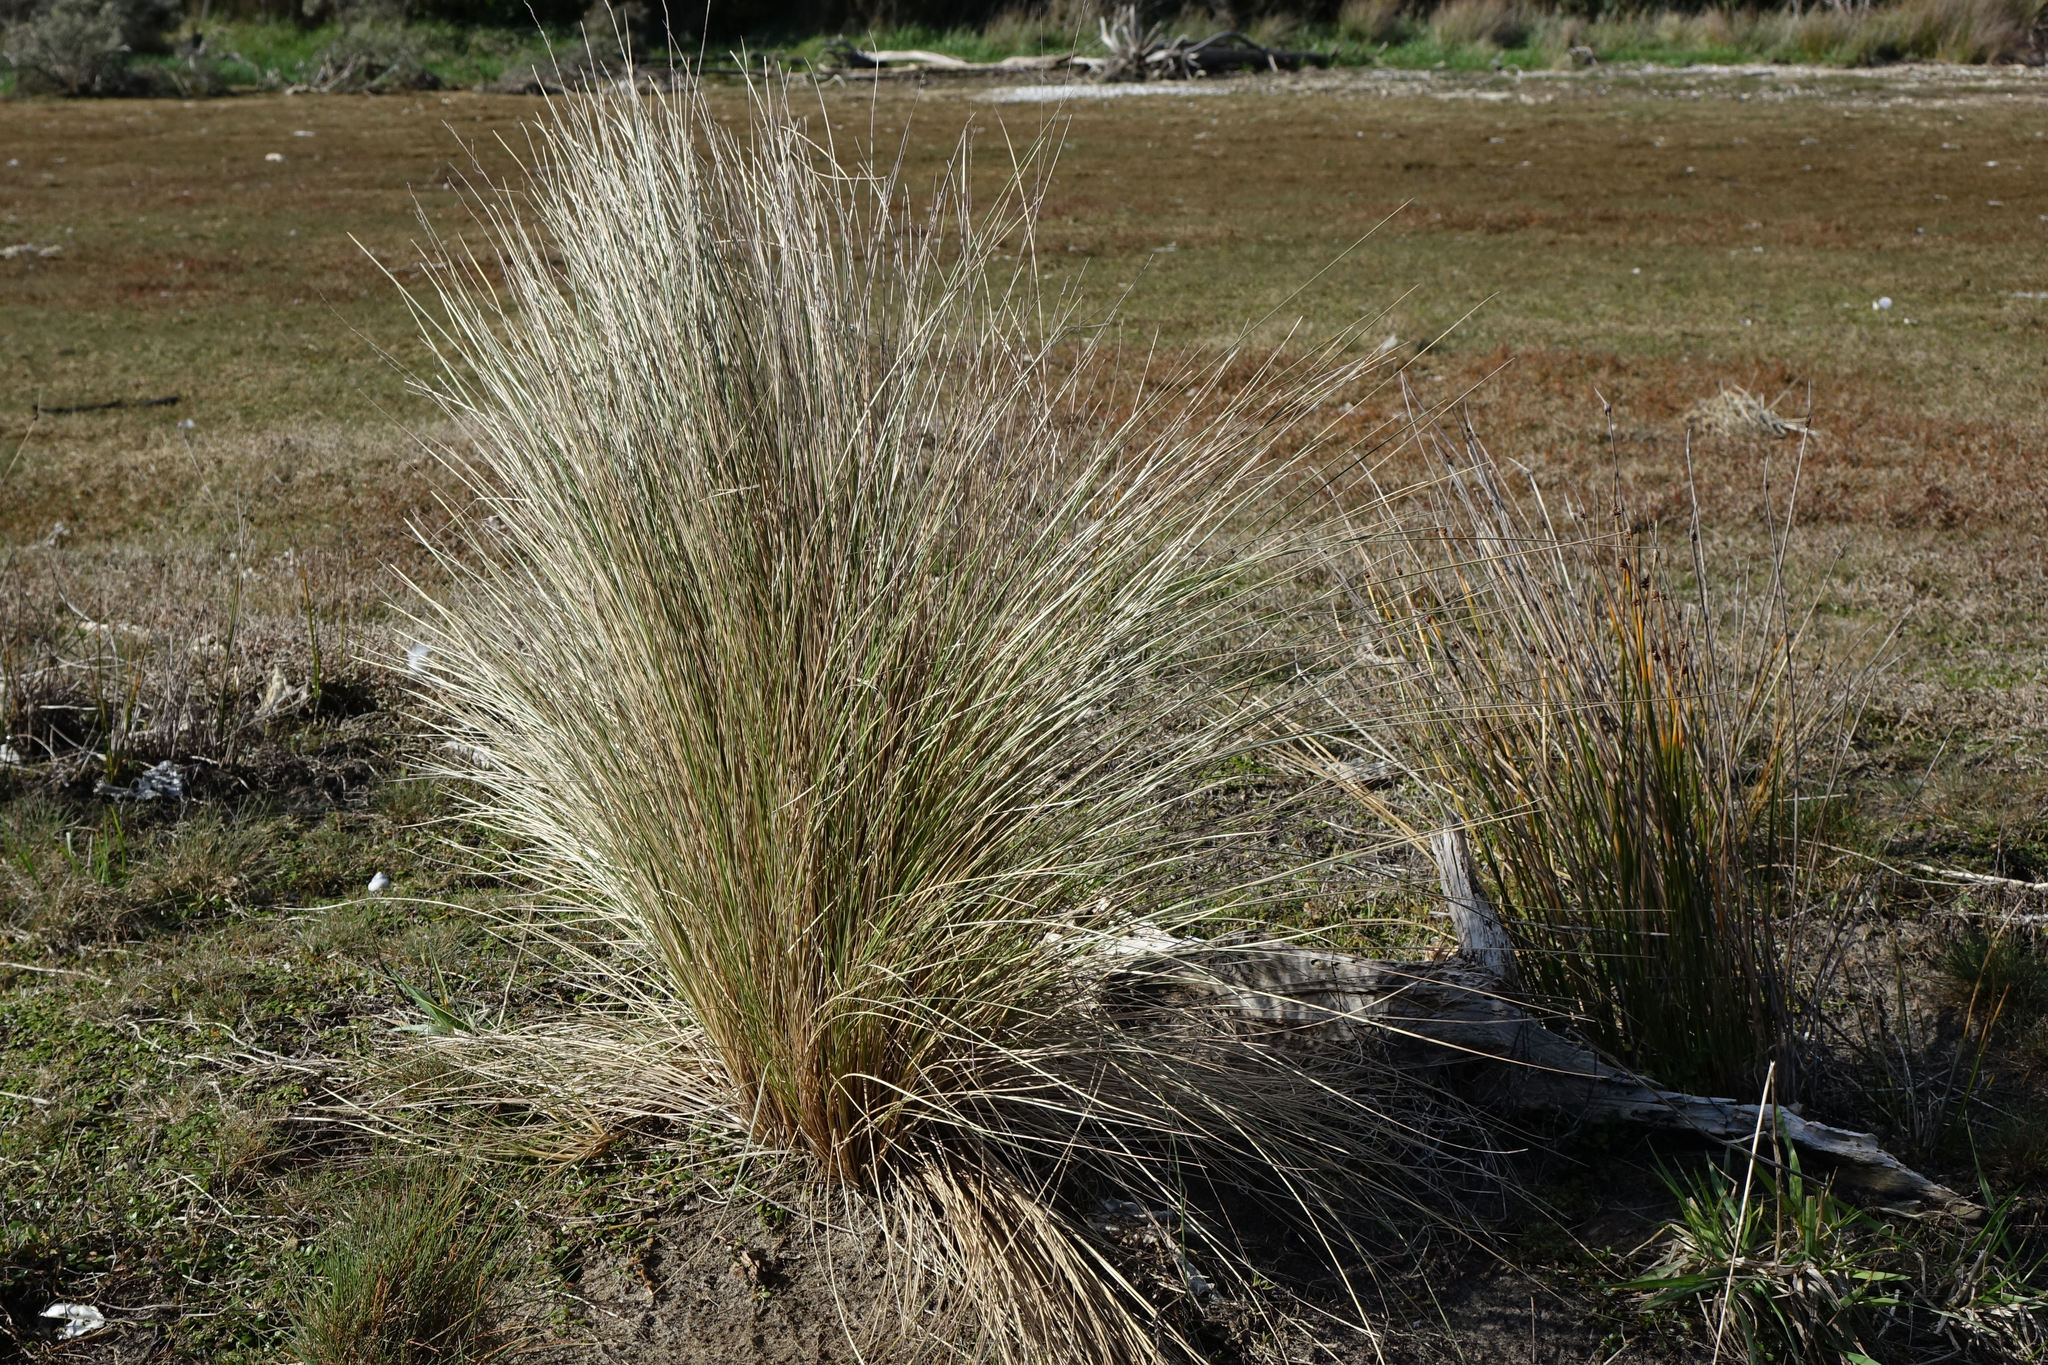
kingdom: Plantae
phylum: Tracheophyta
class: Liliopsida
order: Poales
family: Poaceae
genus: Poa
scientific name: Poa cita
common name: Silver tussock
